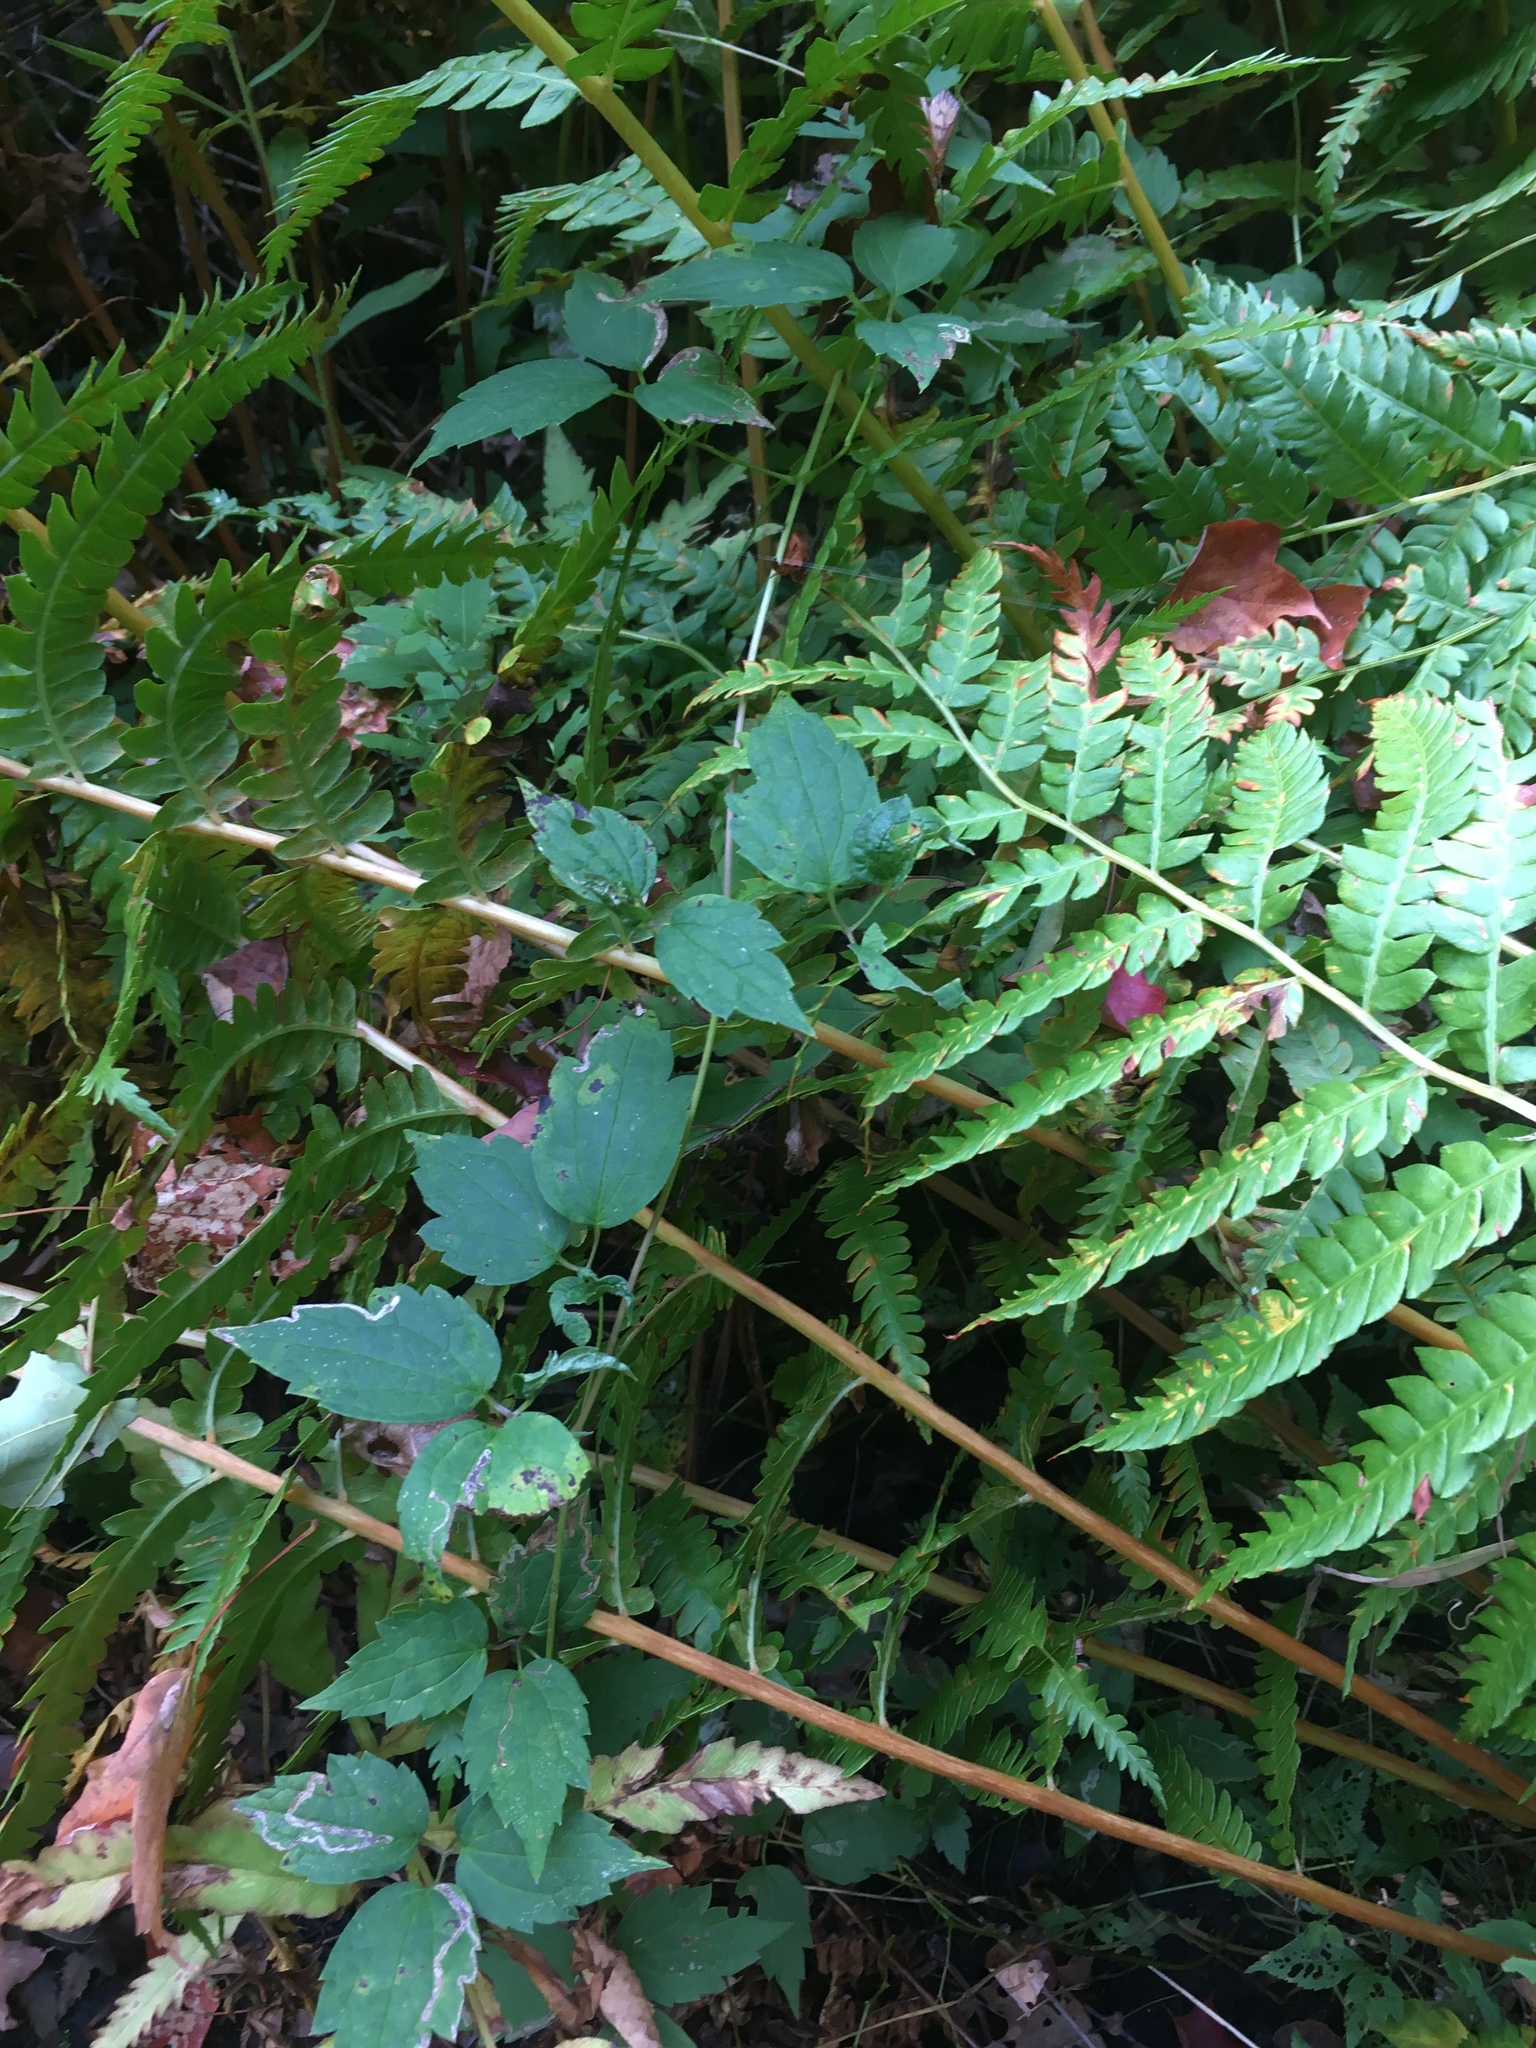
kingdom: Plantae
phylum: Tracheophyta
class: Magnoliopsida
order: Ranunculales
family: Ranunculaceae
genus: Clematis
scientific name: Clematis virginiana
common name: Virgin's-bower
